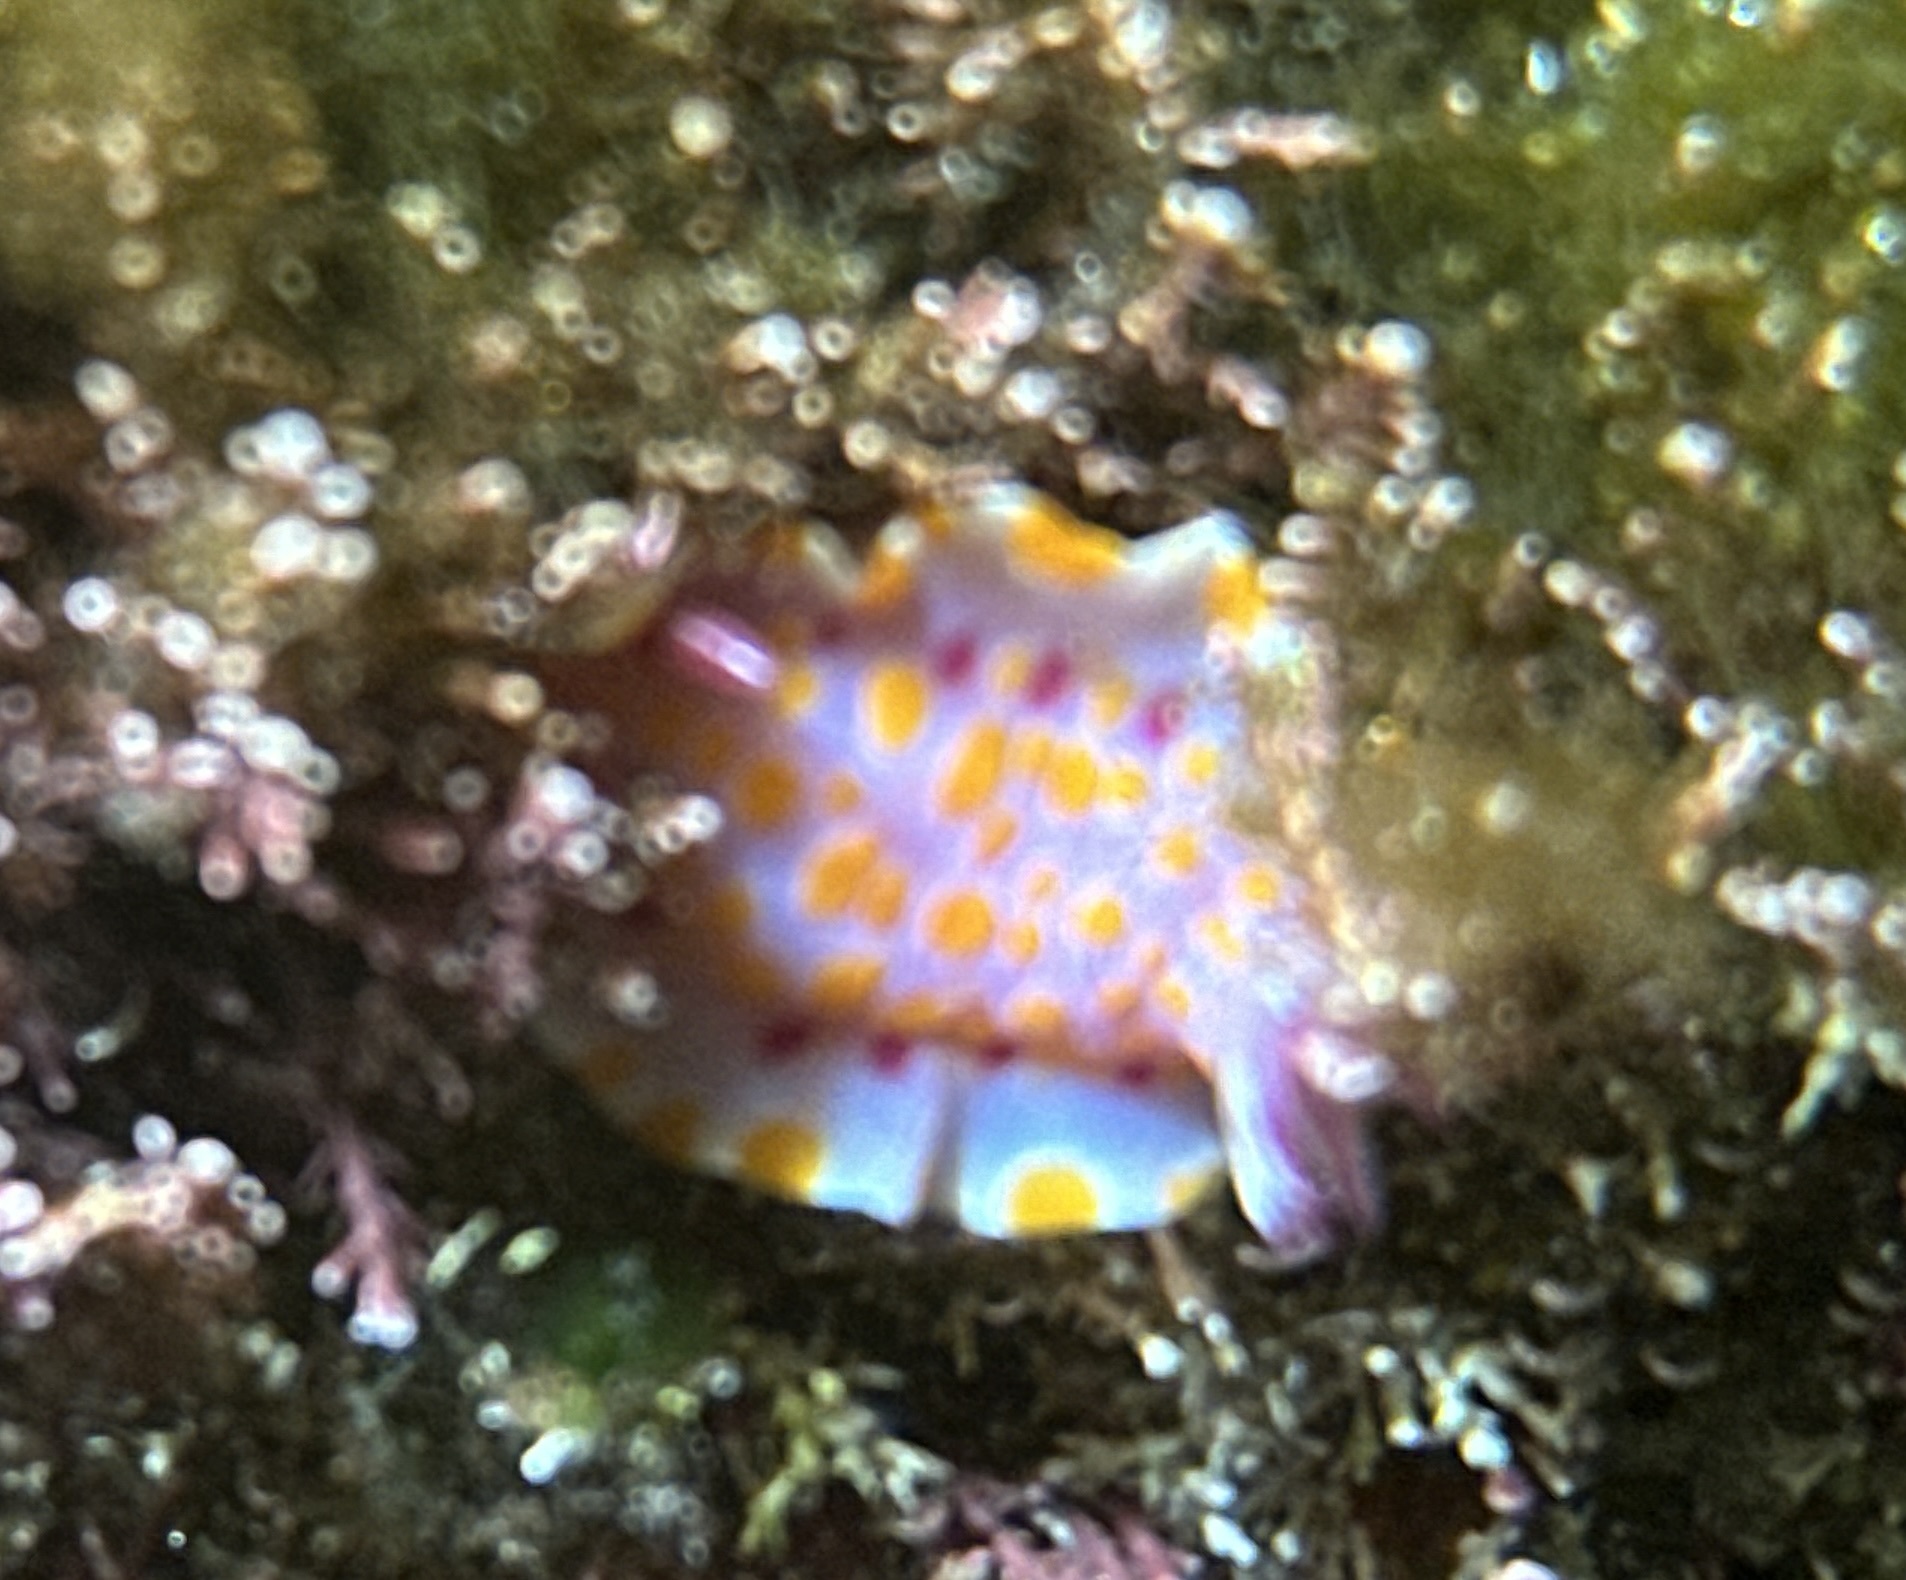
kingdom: Animalia
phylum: Mollusca
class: Gastropoda
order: Nudibranchia
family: Chromodorididae
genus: Ceratosoma
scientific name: Ceratosoma amoenum
